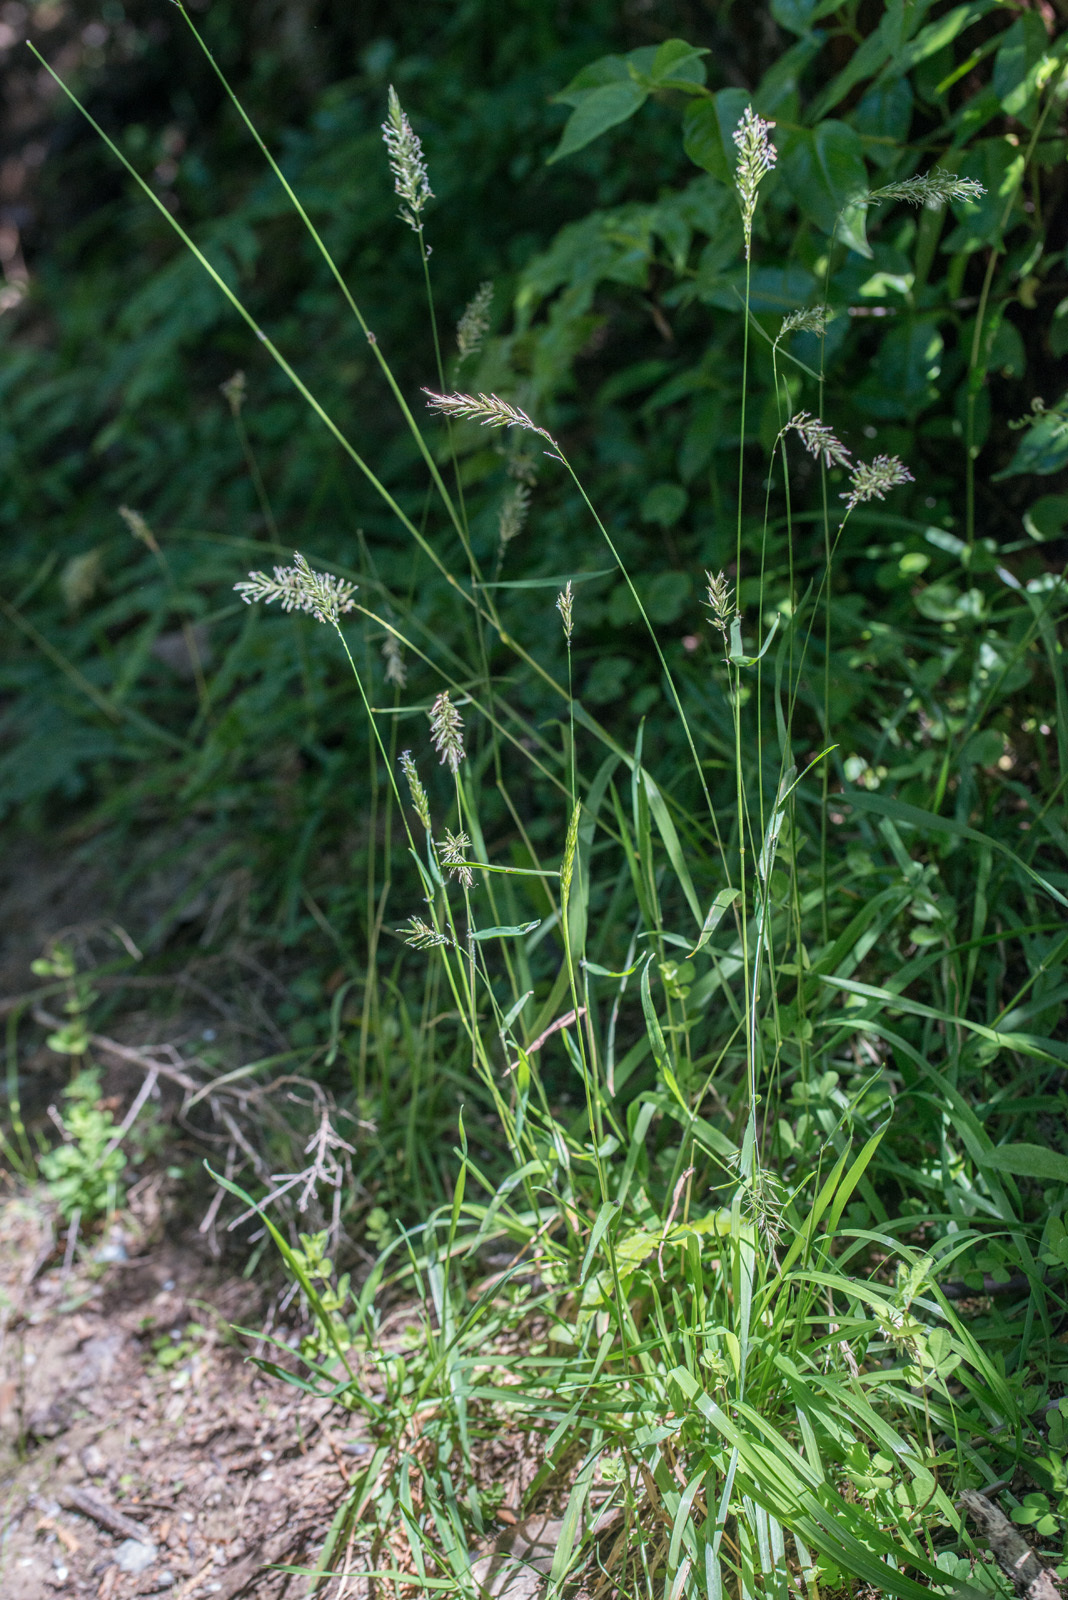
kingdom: Plantae
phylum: Tracheophyta
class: Liliopsida
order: Poales
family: Poaceae
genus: Anthoxanthum
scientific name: Anthoxanthum odoratum
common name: Sweet vernalgrass
